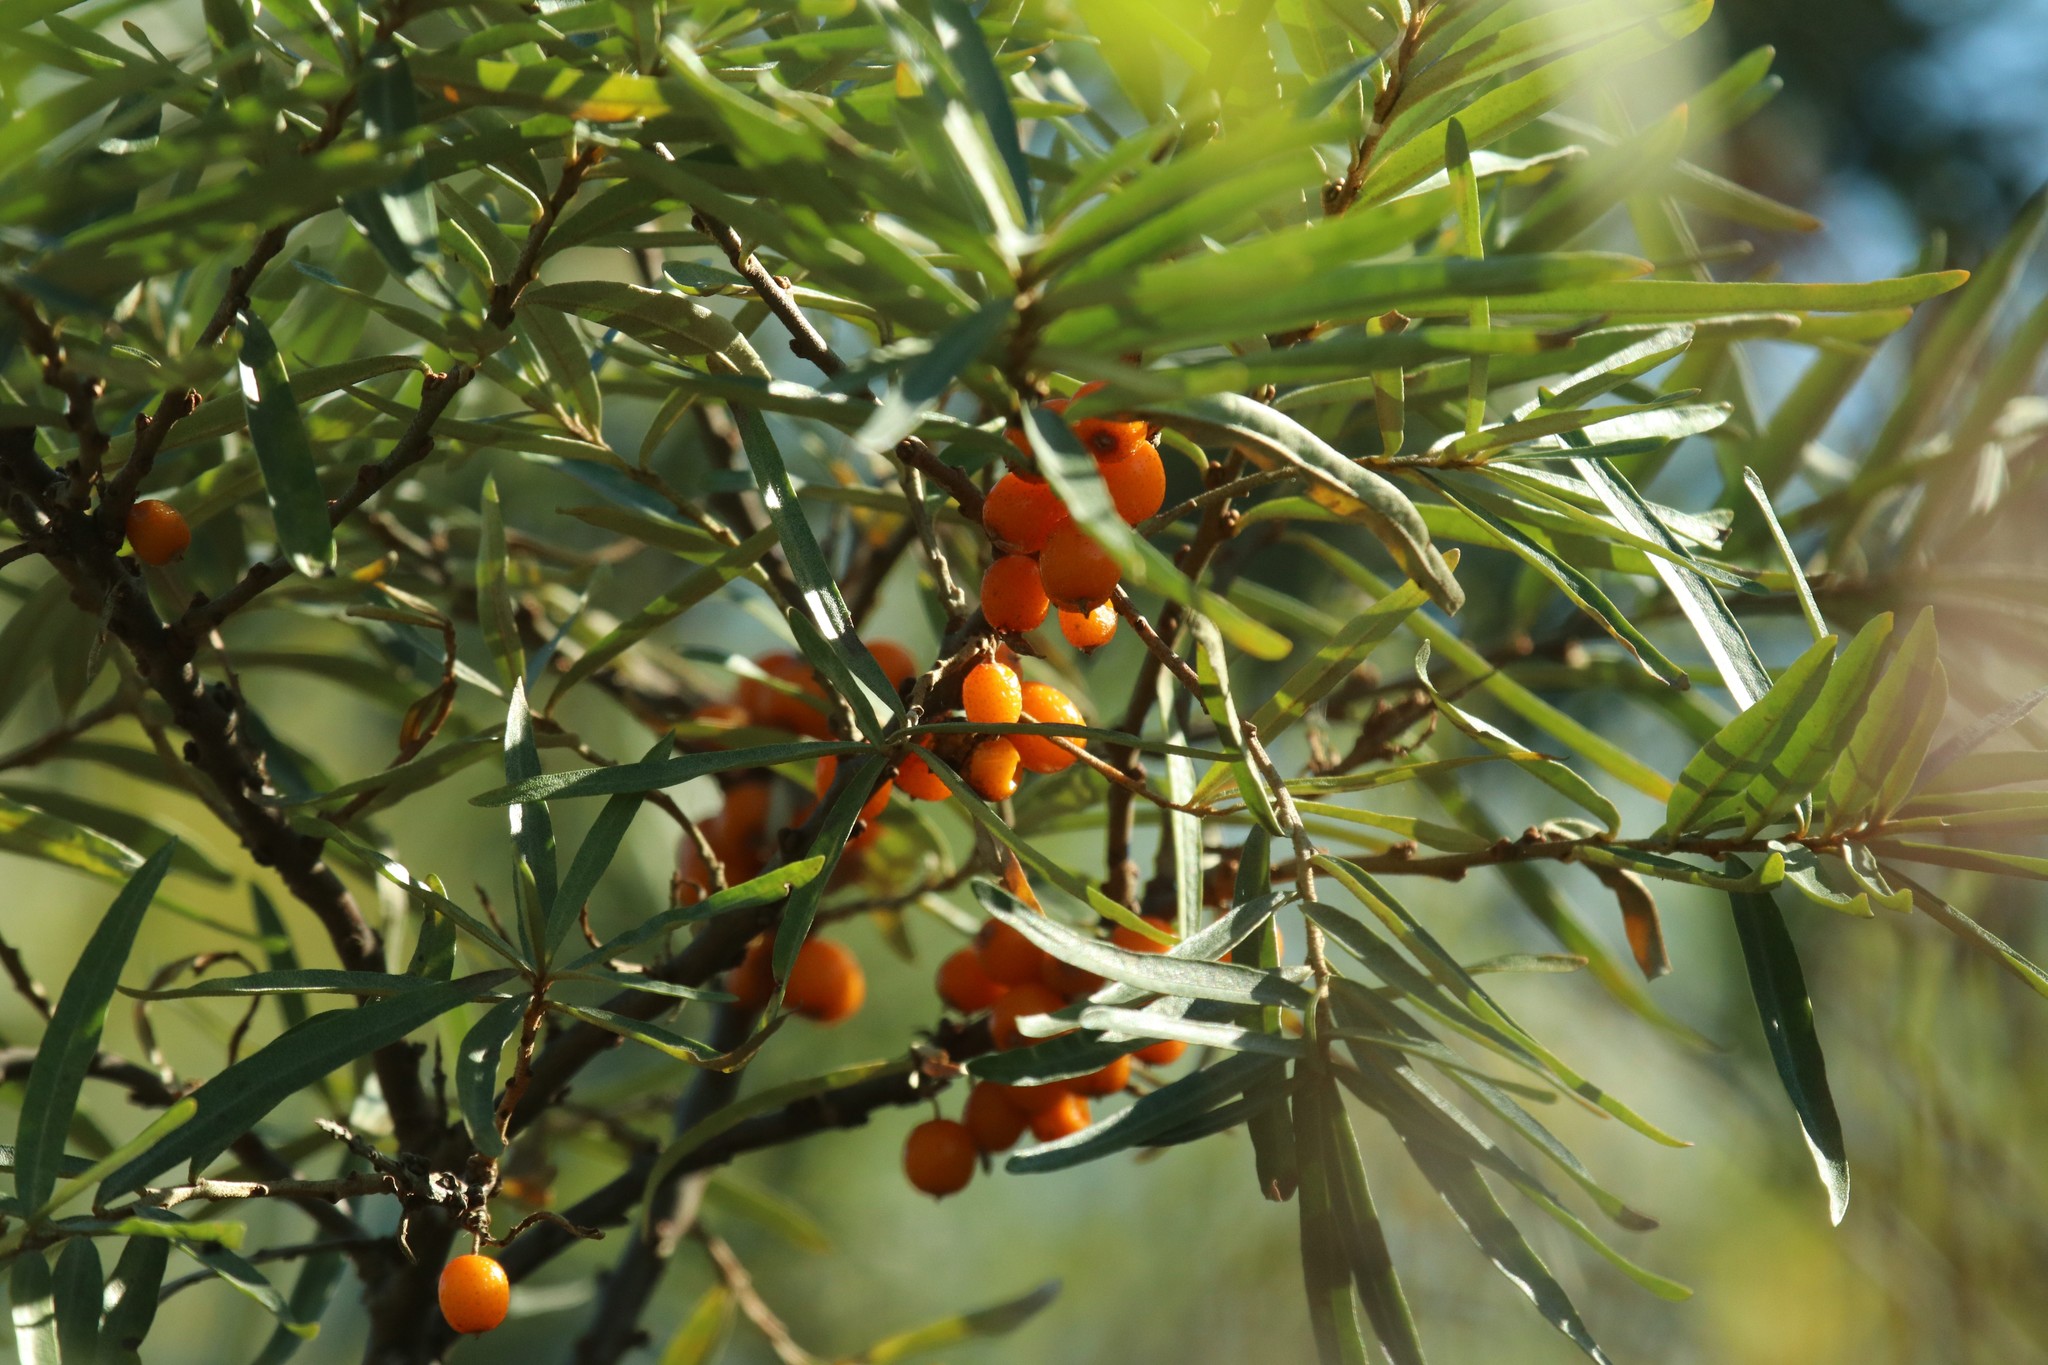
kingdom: Plantae
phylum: Tracheophyta
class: Magnoliopsida
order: Rosales
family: Elaeagnaceae
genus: Hippophae
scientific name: Hippophae rhamnoides
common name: Sea-buckthorn
